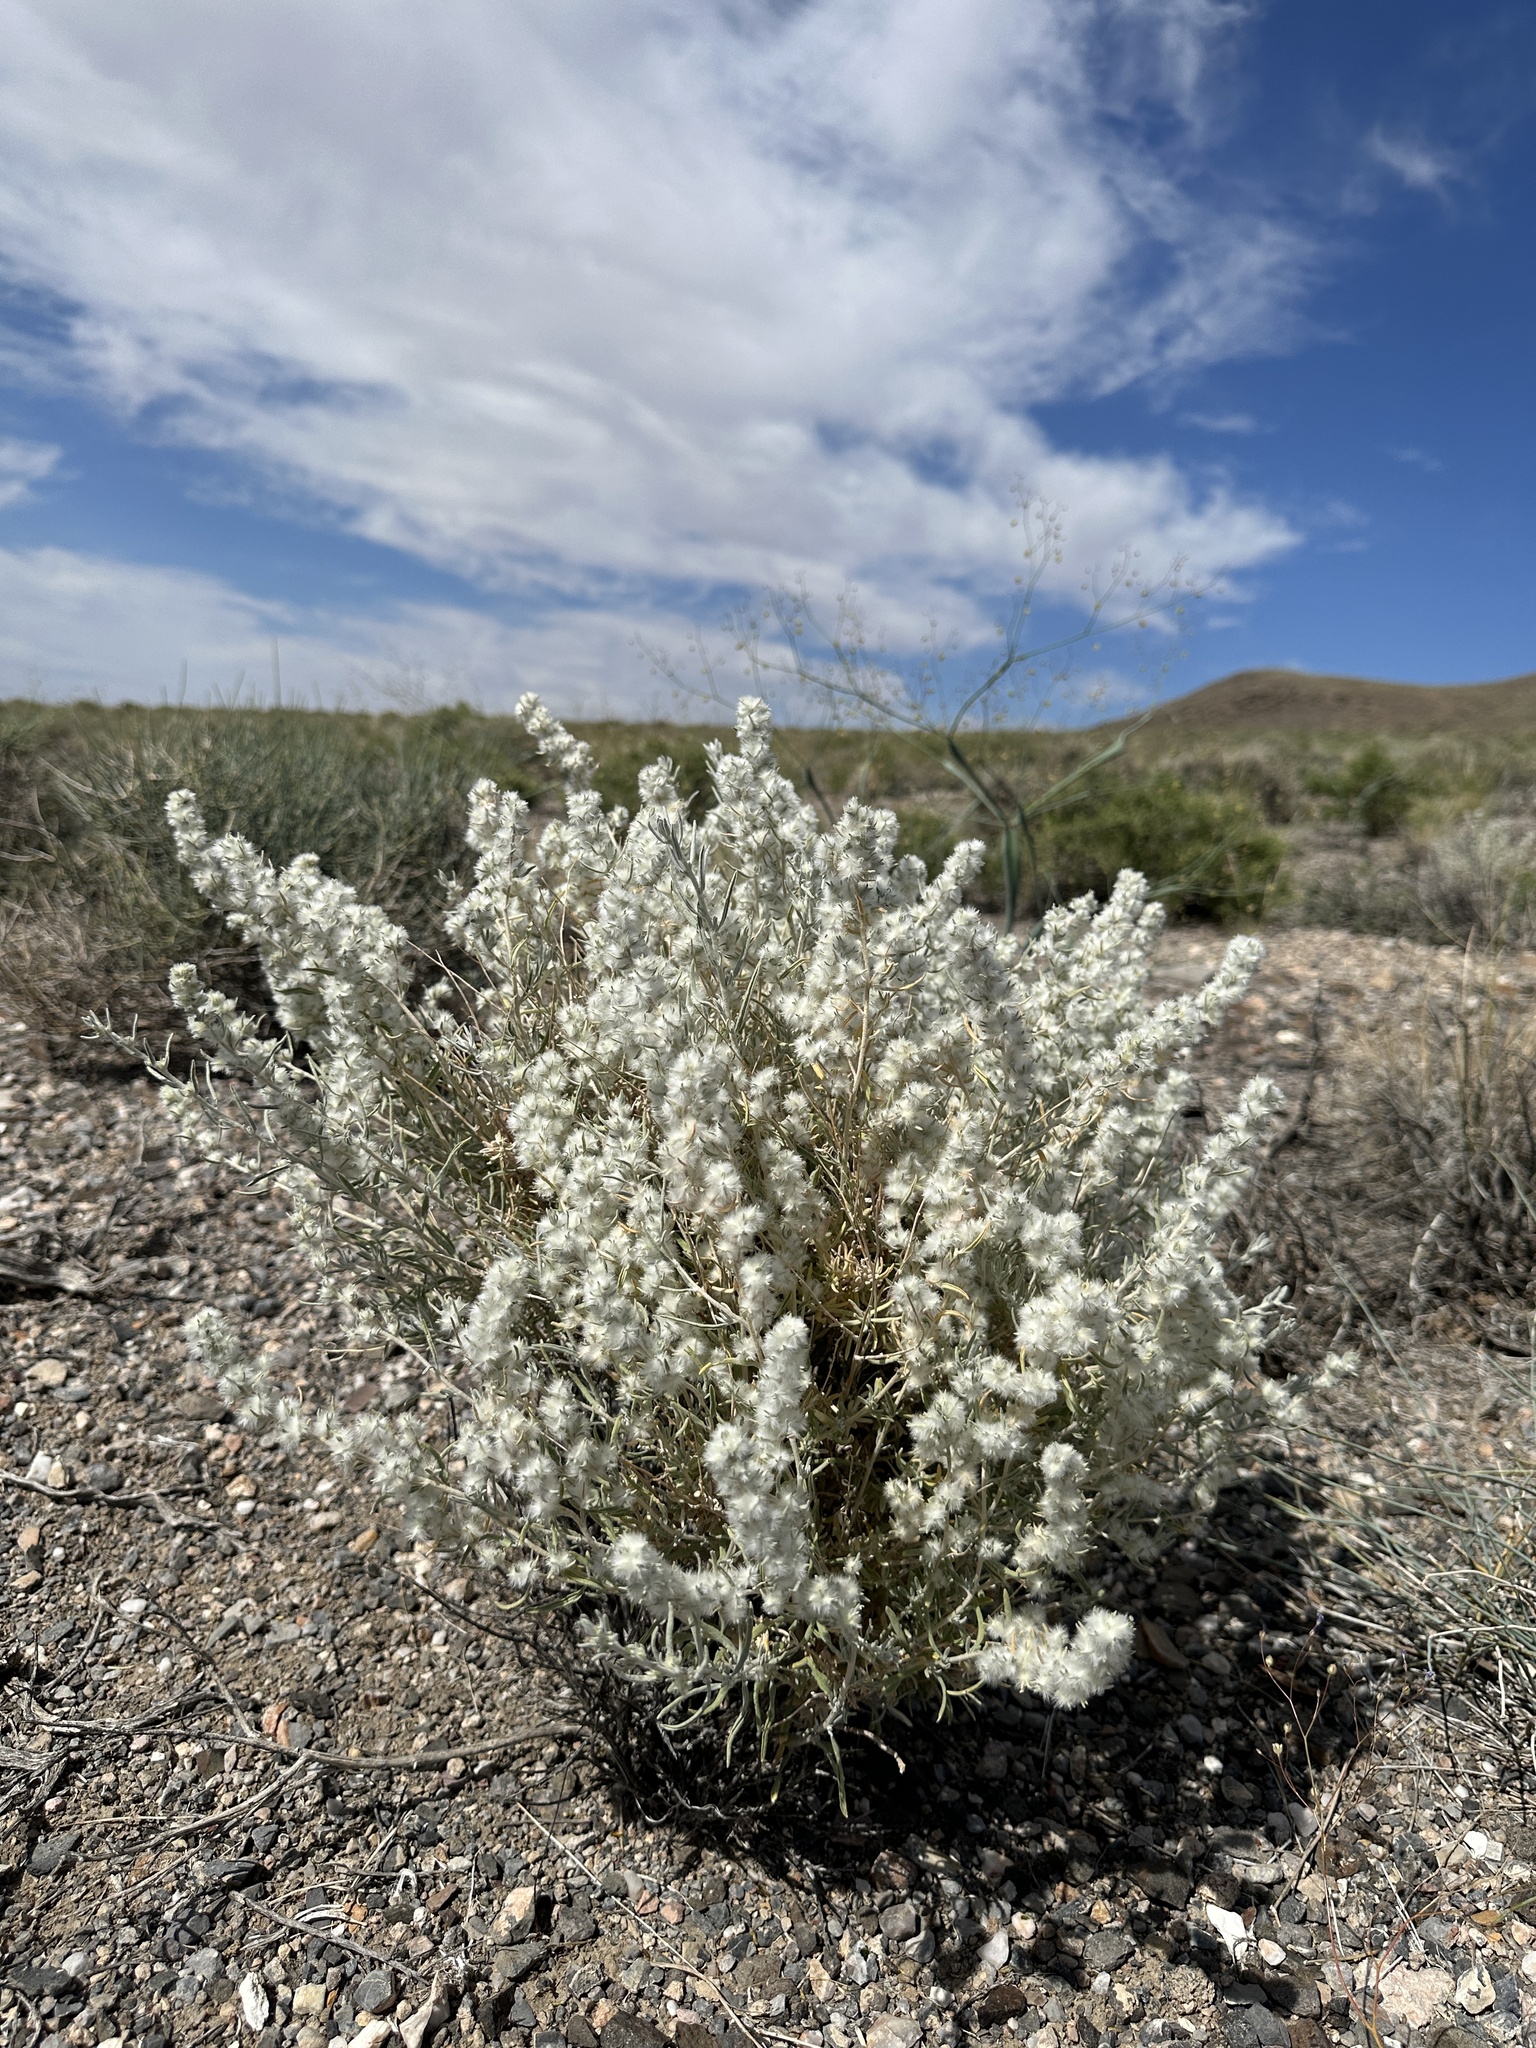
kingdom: Plantae
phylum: Tracheophyta
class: Magnoliopsida
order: Caryophyllales
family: Amaranthaceae
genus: Krascheninnikovia
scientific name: Krascheninnikovia lanata
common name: Winterfat
